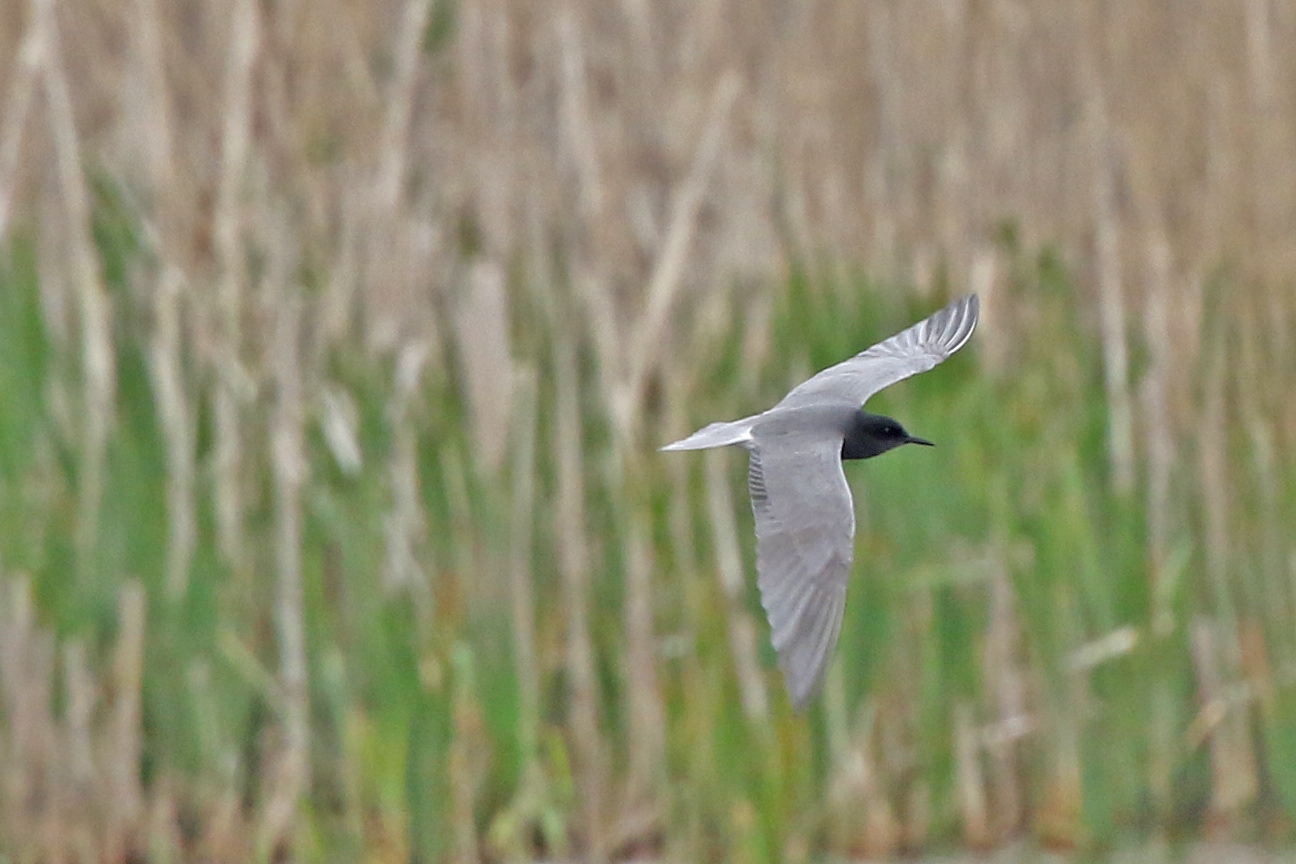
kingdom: Animalia
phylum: Chordata
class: Aves
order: Charadriiformes
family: Laridae
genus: Chlidonias
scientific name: Chlidonias niger
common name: Black tern
